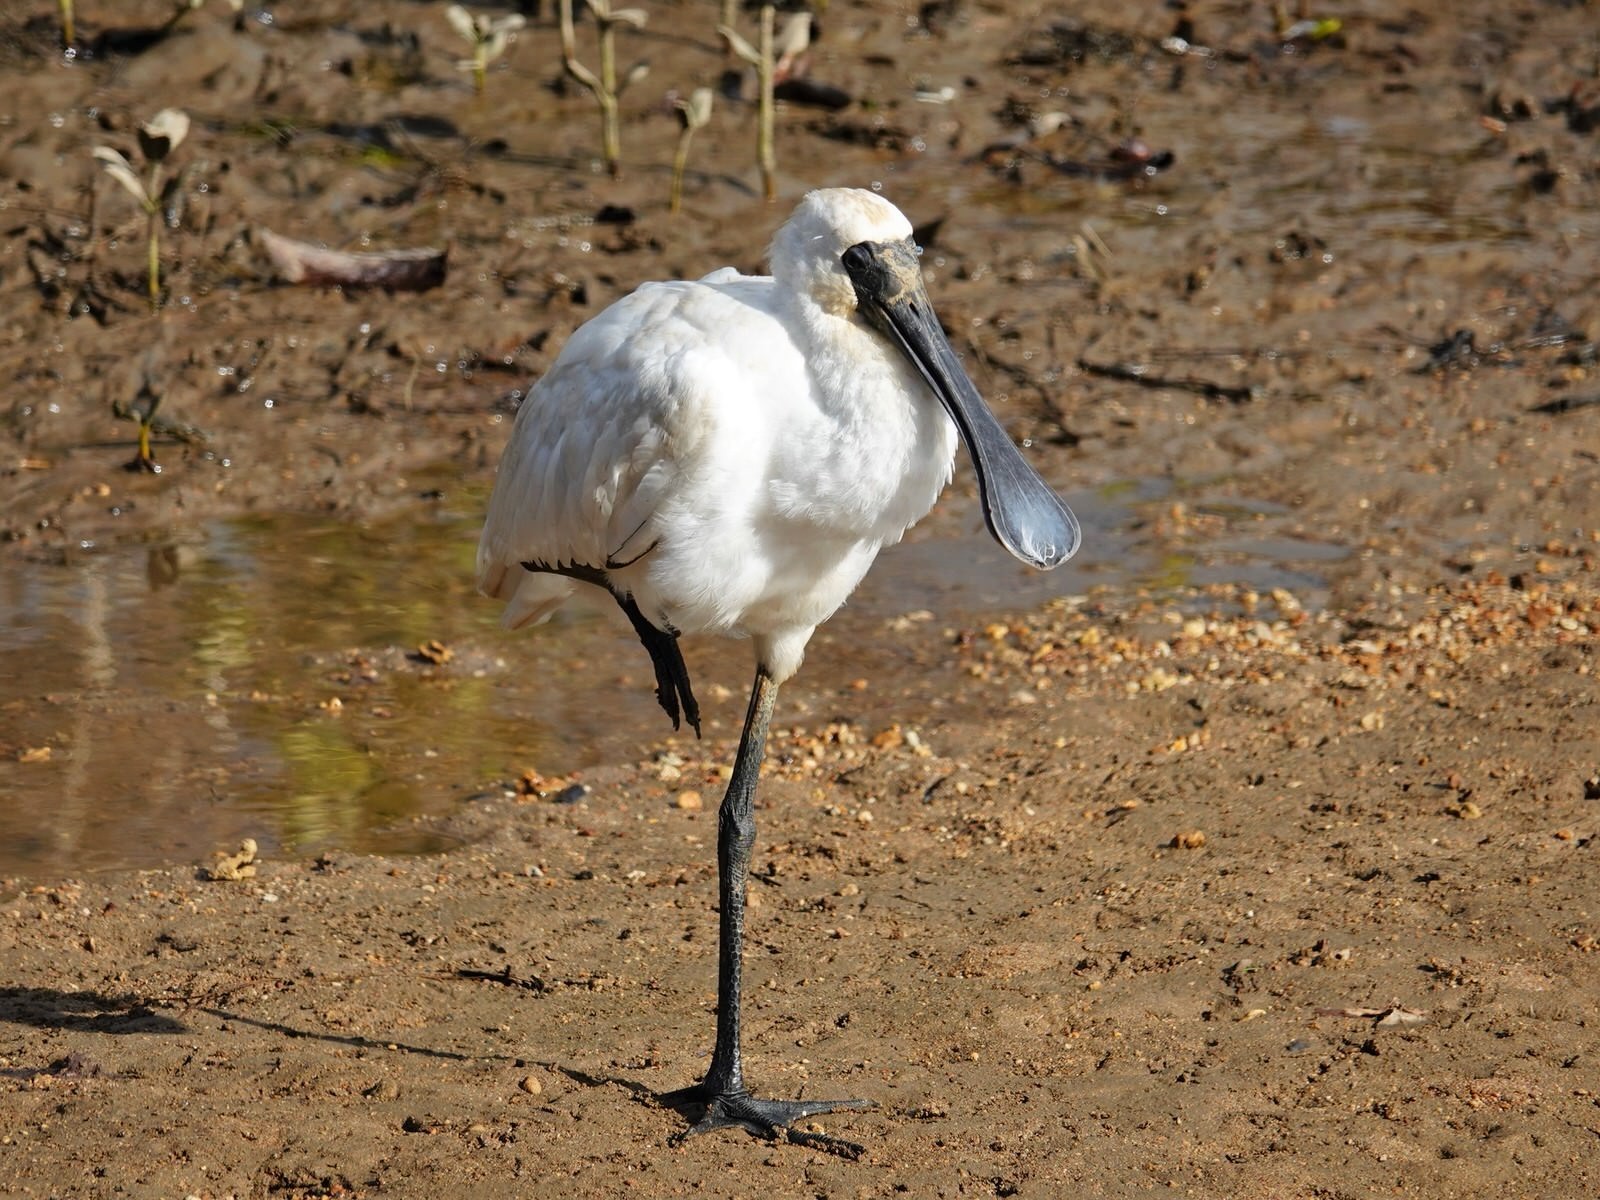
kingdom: Animalia
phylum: Chordata
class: Aves
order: Pelecaniformes
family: Threskiornithidae
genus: Platalea
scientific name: Platalea regia
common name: Royal spoonbill
